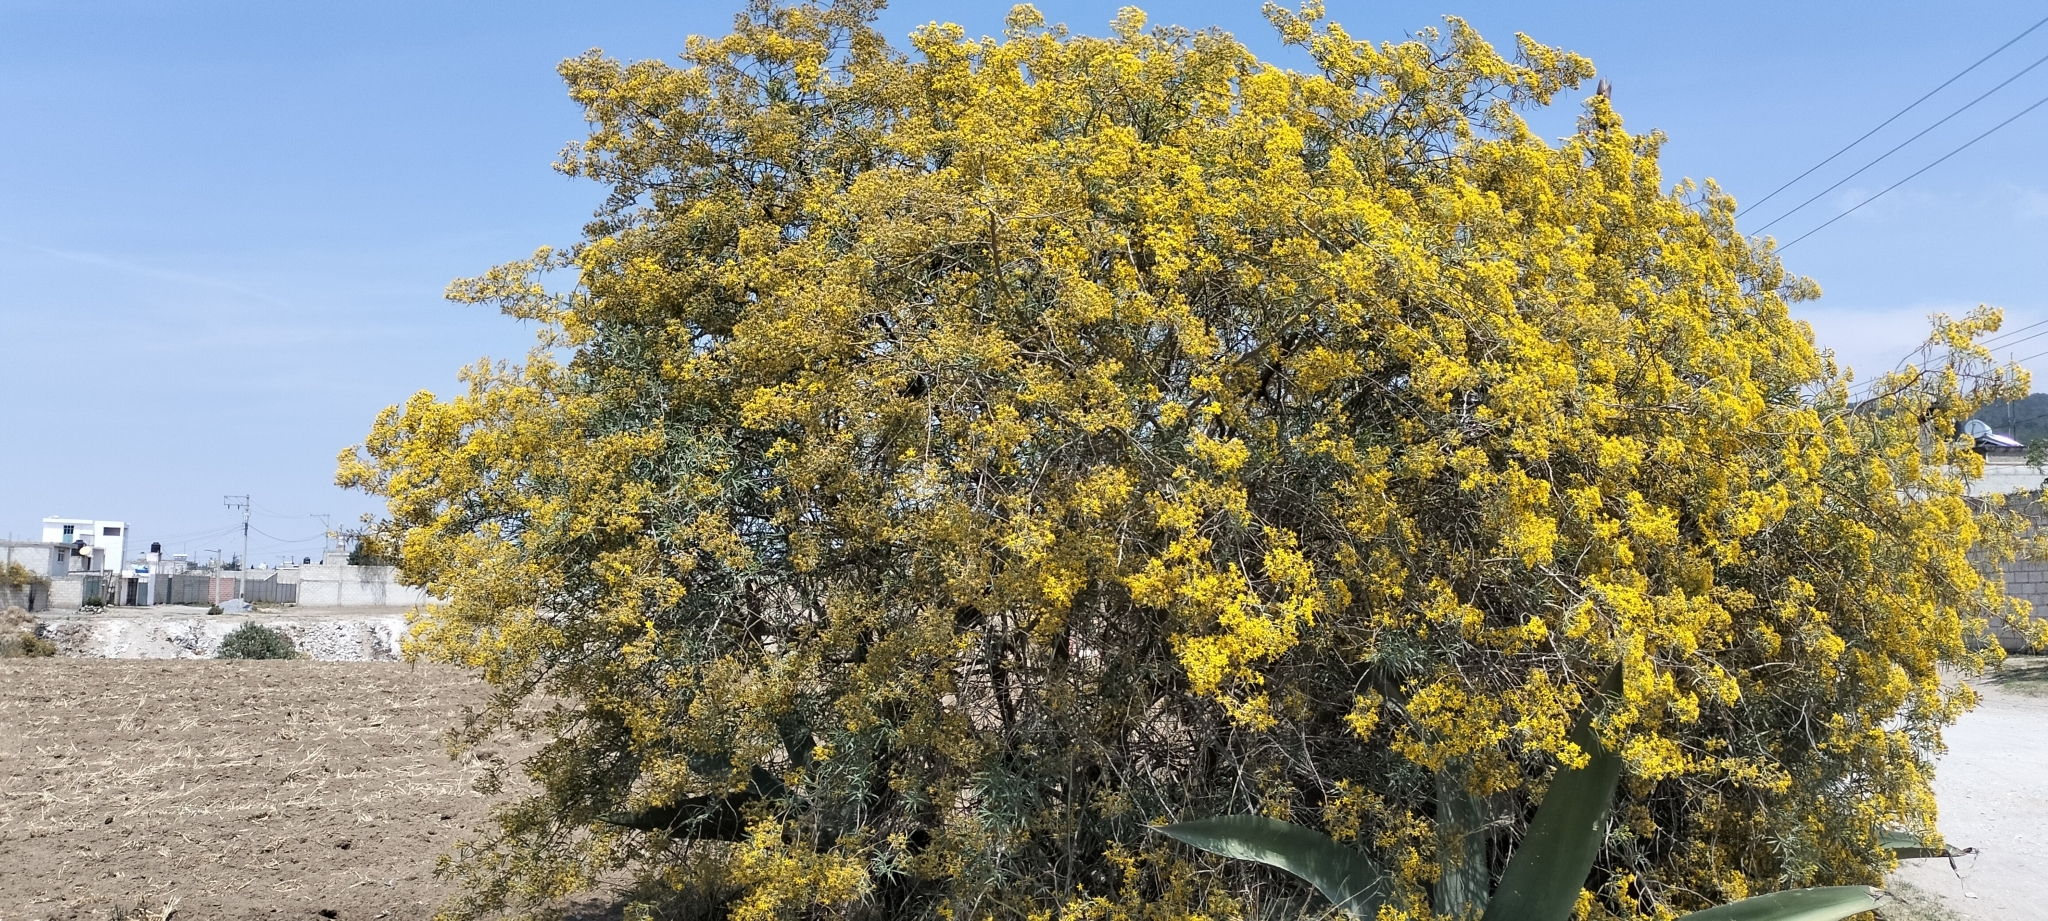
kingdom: Plantae
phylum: Tracheophyta
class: Magnoliopsida
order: Asterales
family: Asteraceae
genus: Barkleyanthus
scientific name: Barkleyanthus salicifolius
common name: Willow ragwort
